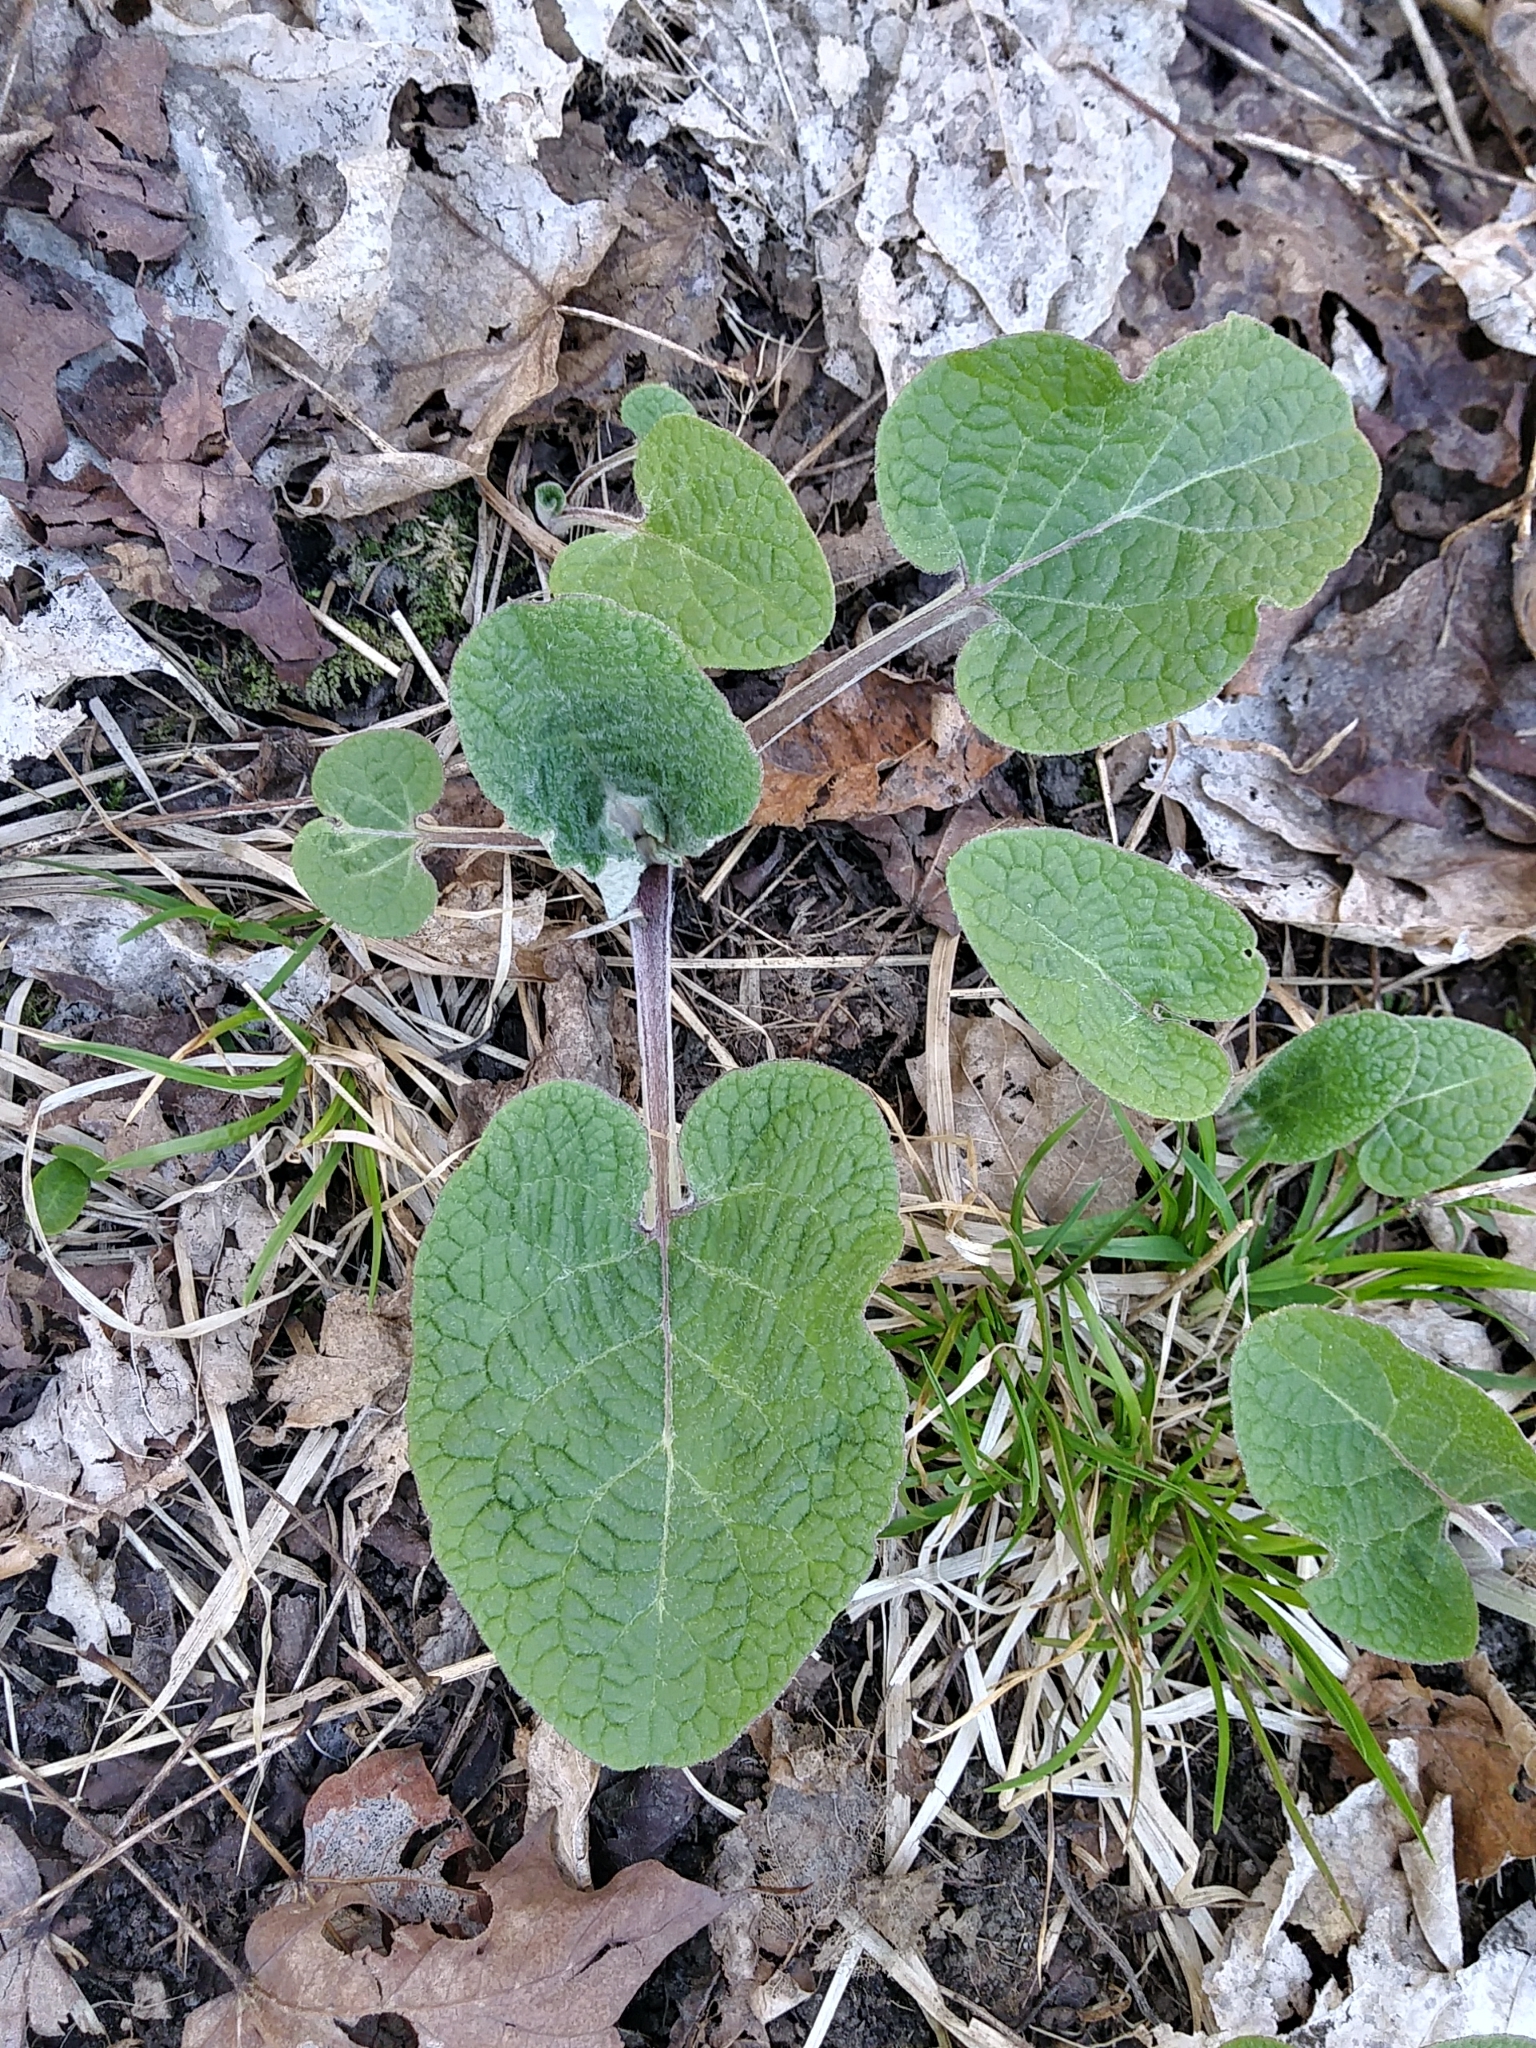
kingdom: Plantae
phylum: Tracheophyta
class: Magnoliopsida
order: Asterales
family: Asteraceae
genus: Arctium
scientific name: Arctium
